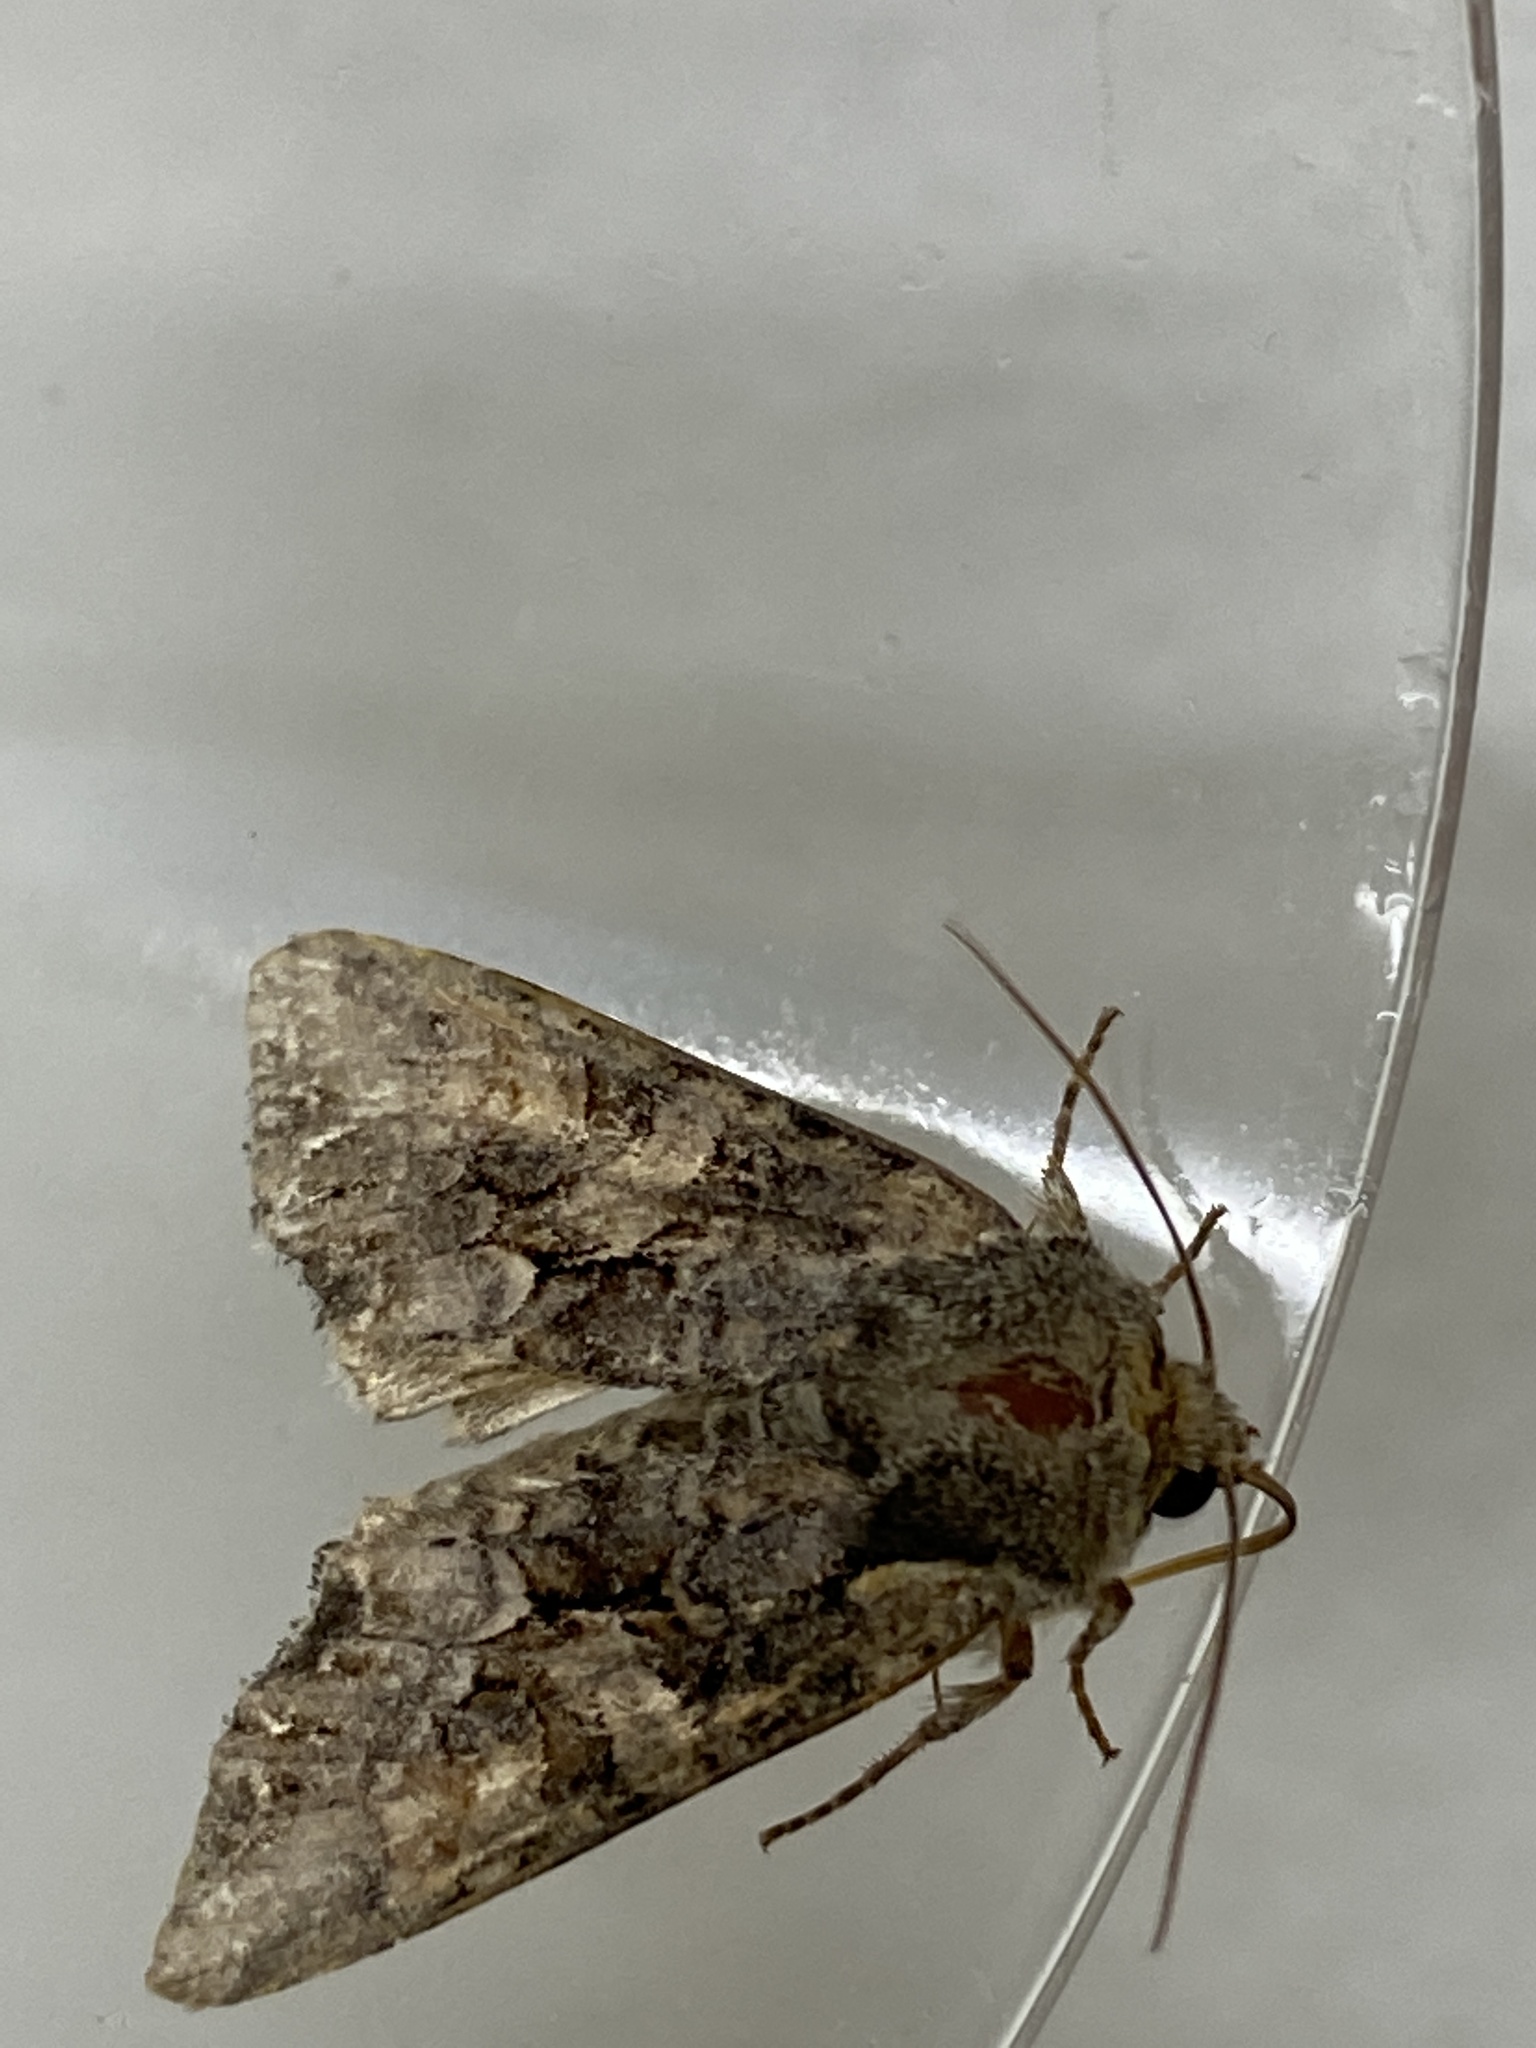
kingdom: Animalia
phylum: Arthropoda
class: Insecta
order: Lepidoptera
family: Noctuidae
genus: Lacanobia
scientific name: Lacanobia thalassina
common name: Pale-shouldered brocade
